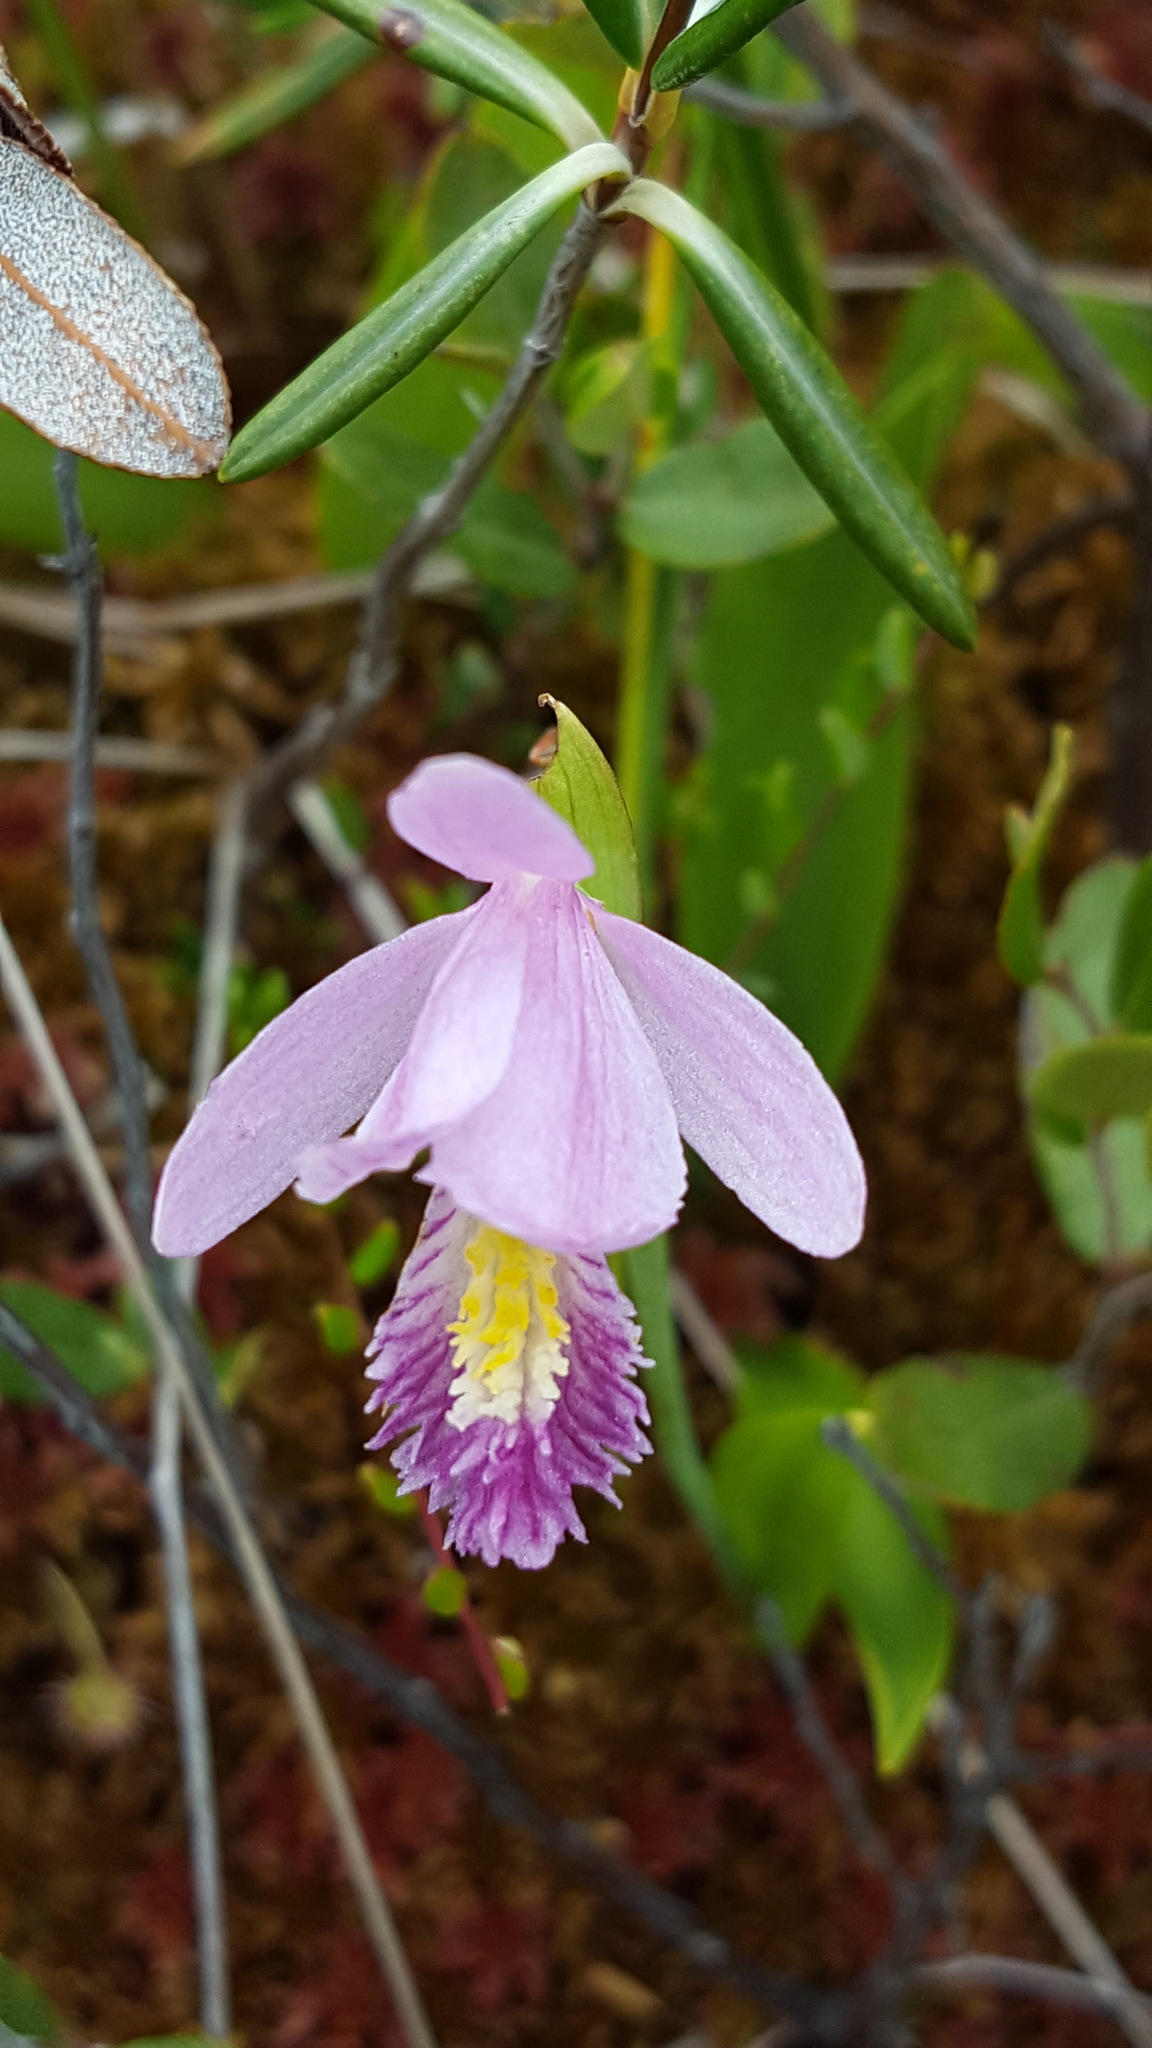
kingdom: Plantae
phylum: Tracheophyta
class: Liliopsida
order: Asparagales
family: Orchidaceae
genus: Pogonia
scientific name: Pogonia ophioglossoides
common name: Rose pogonia
